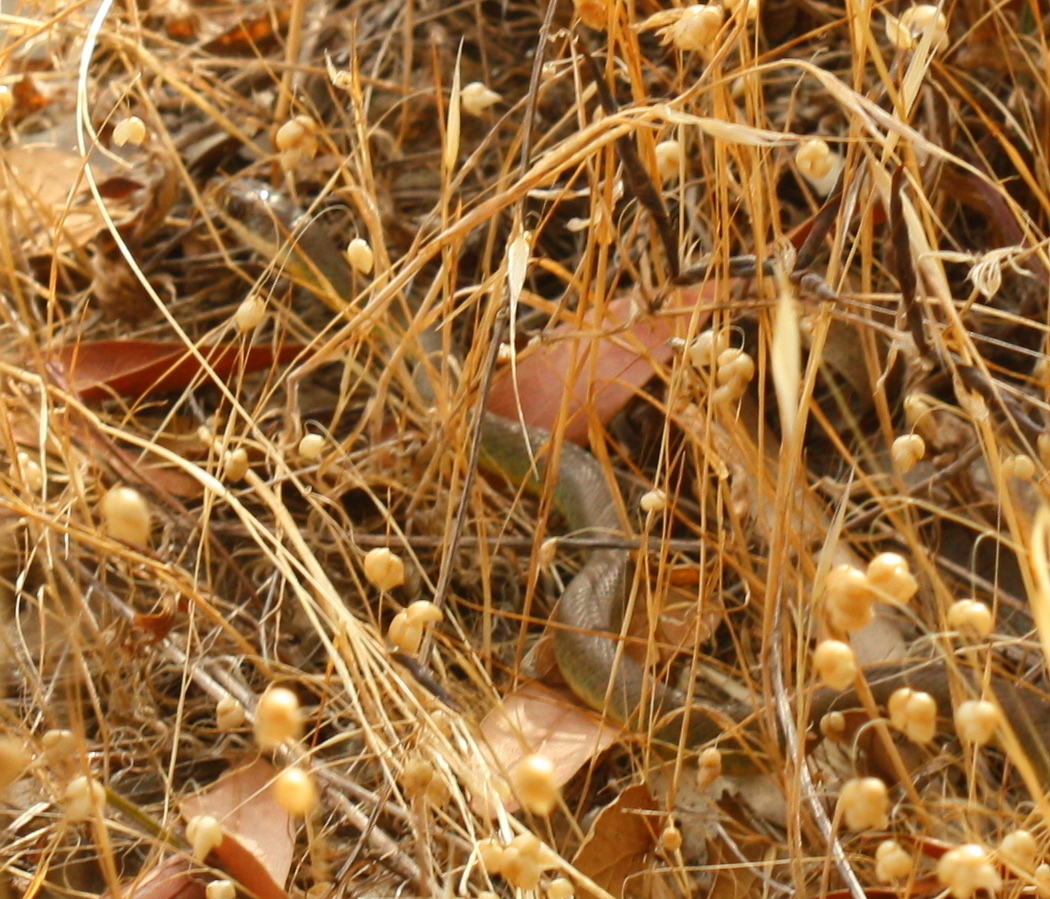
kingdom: Animalia
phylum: Chordata
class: Squamata
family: Colubridae
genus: Coluber
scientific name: Coluber constrictor
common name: Eastern racer
